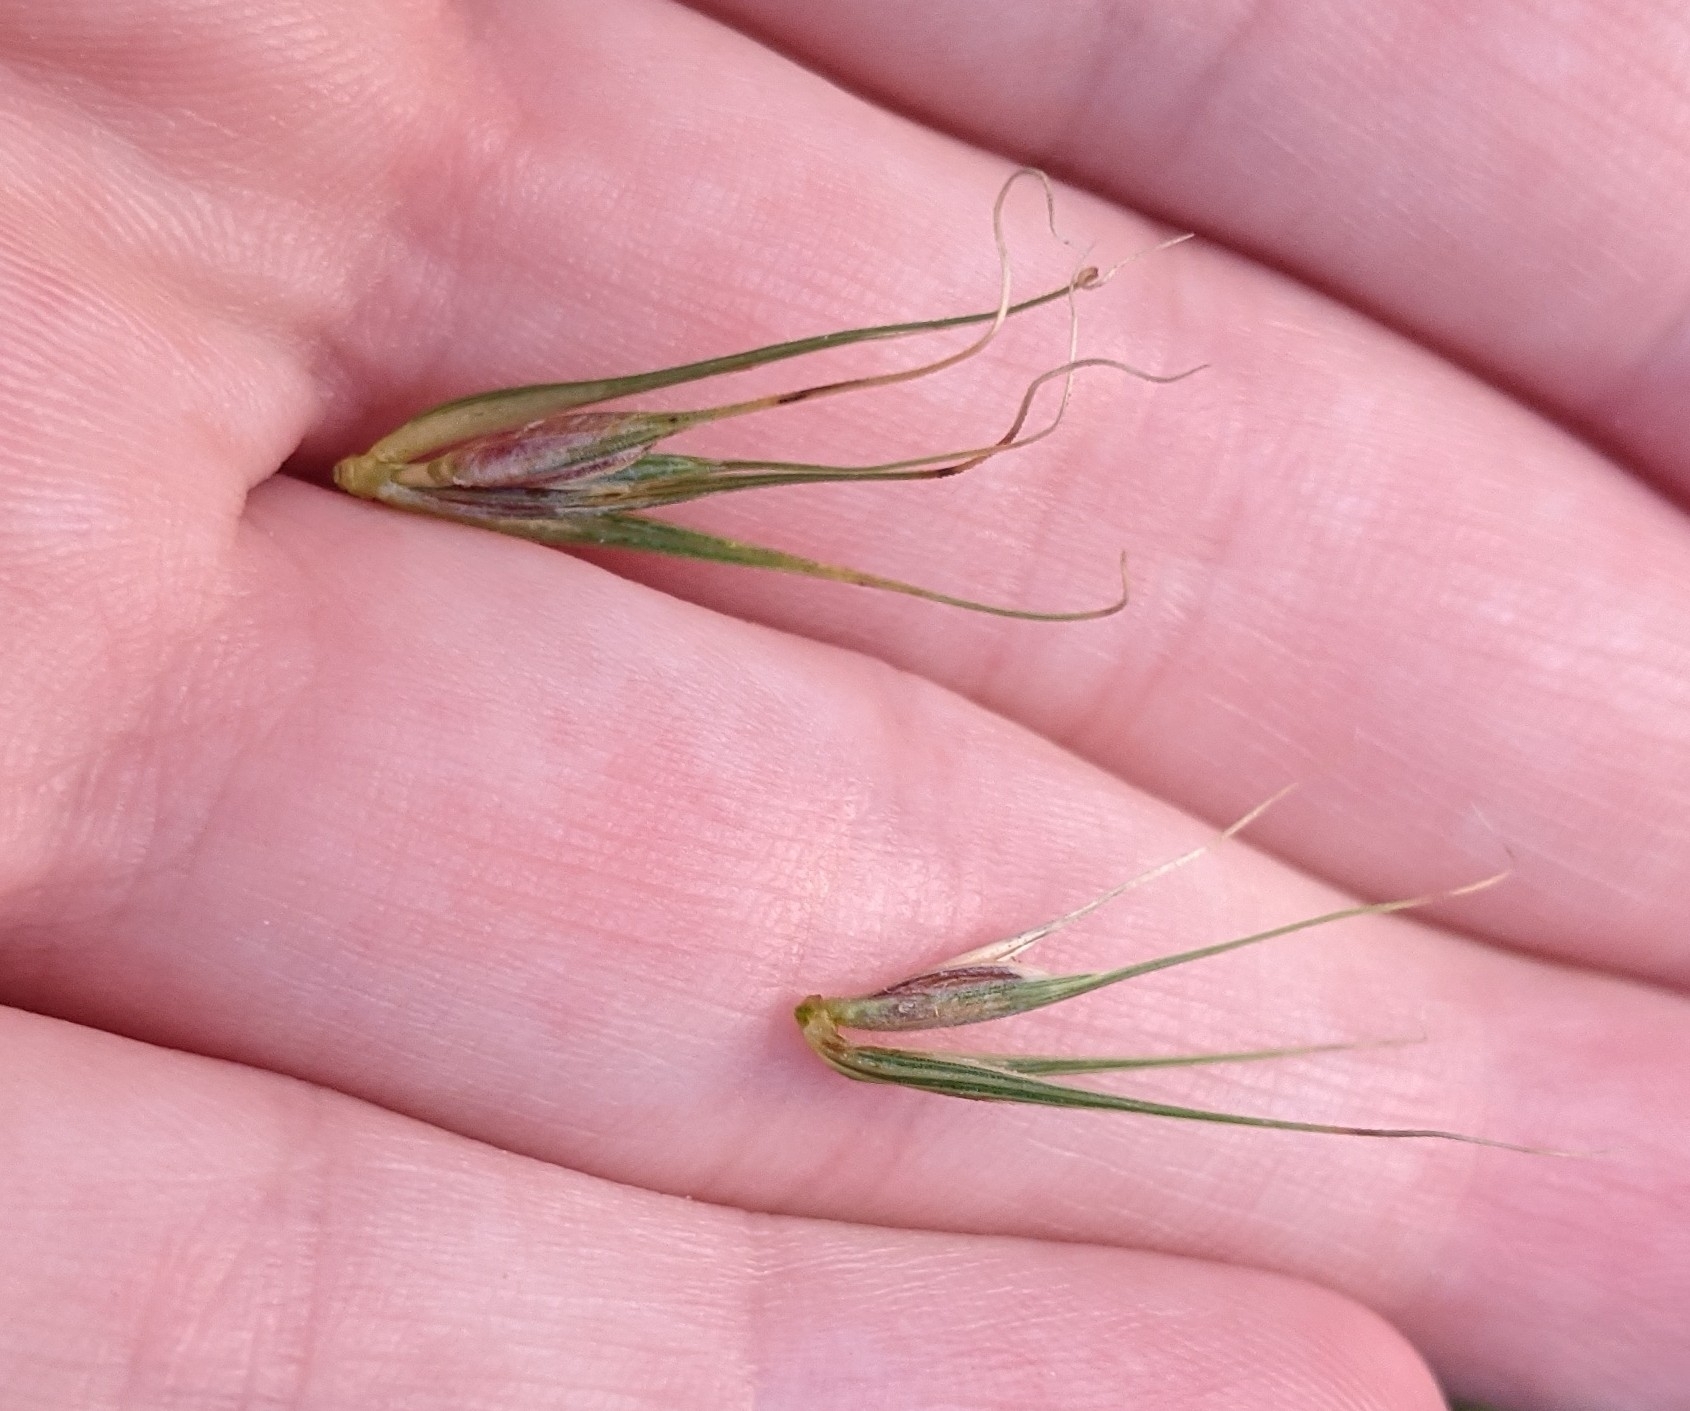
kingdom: Plantae
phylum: Tracheophyta
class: Liliopsida
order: Poales
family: Poaceae
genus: Elymus
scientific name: Elymus virginicus
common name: Common eastern wildrye
